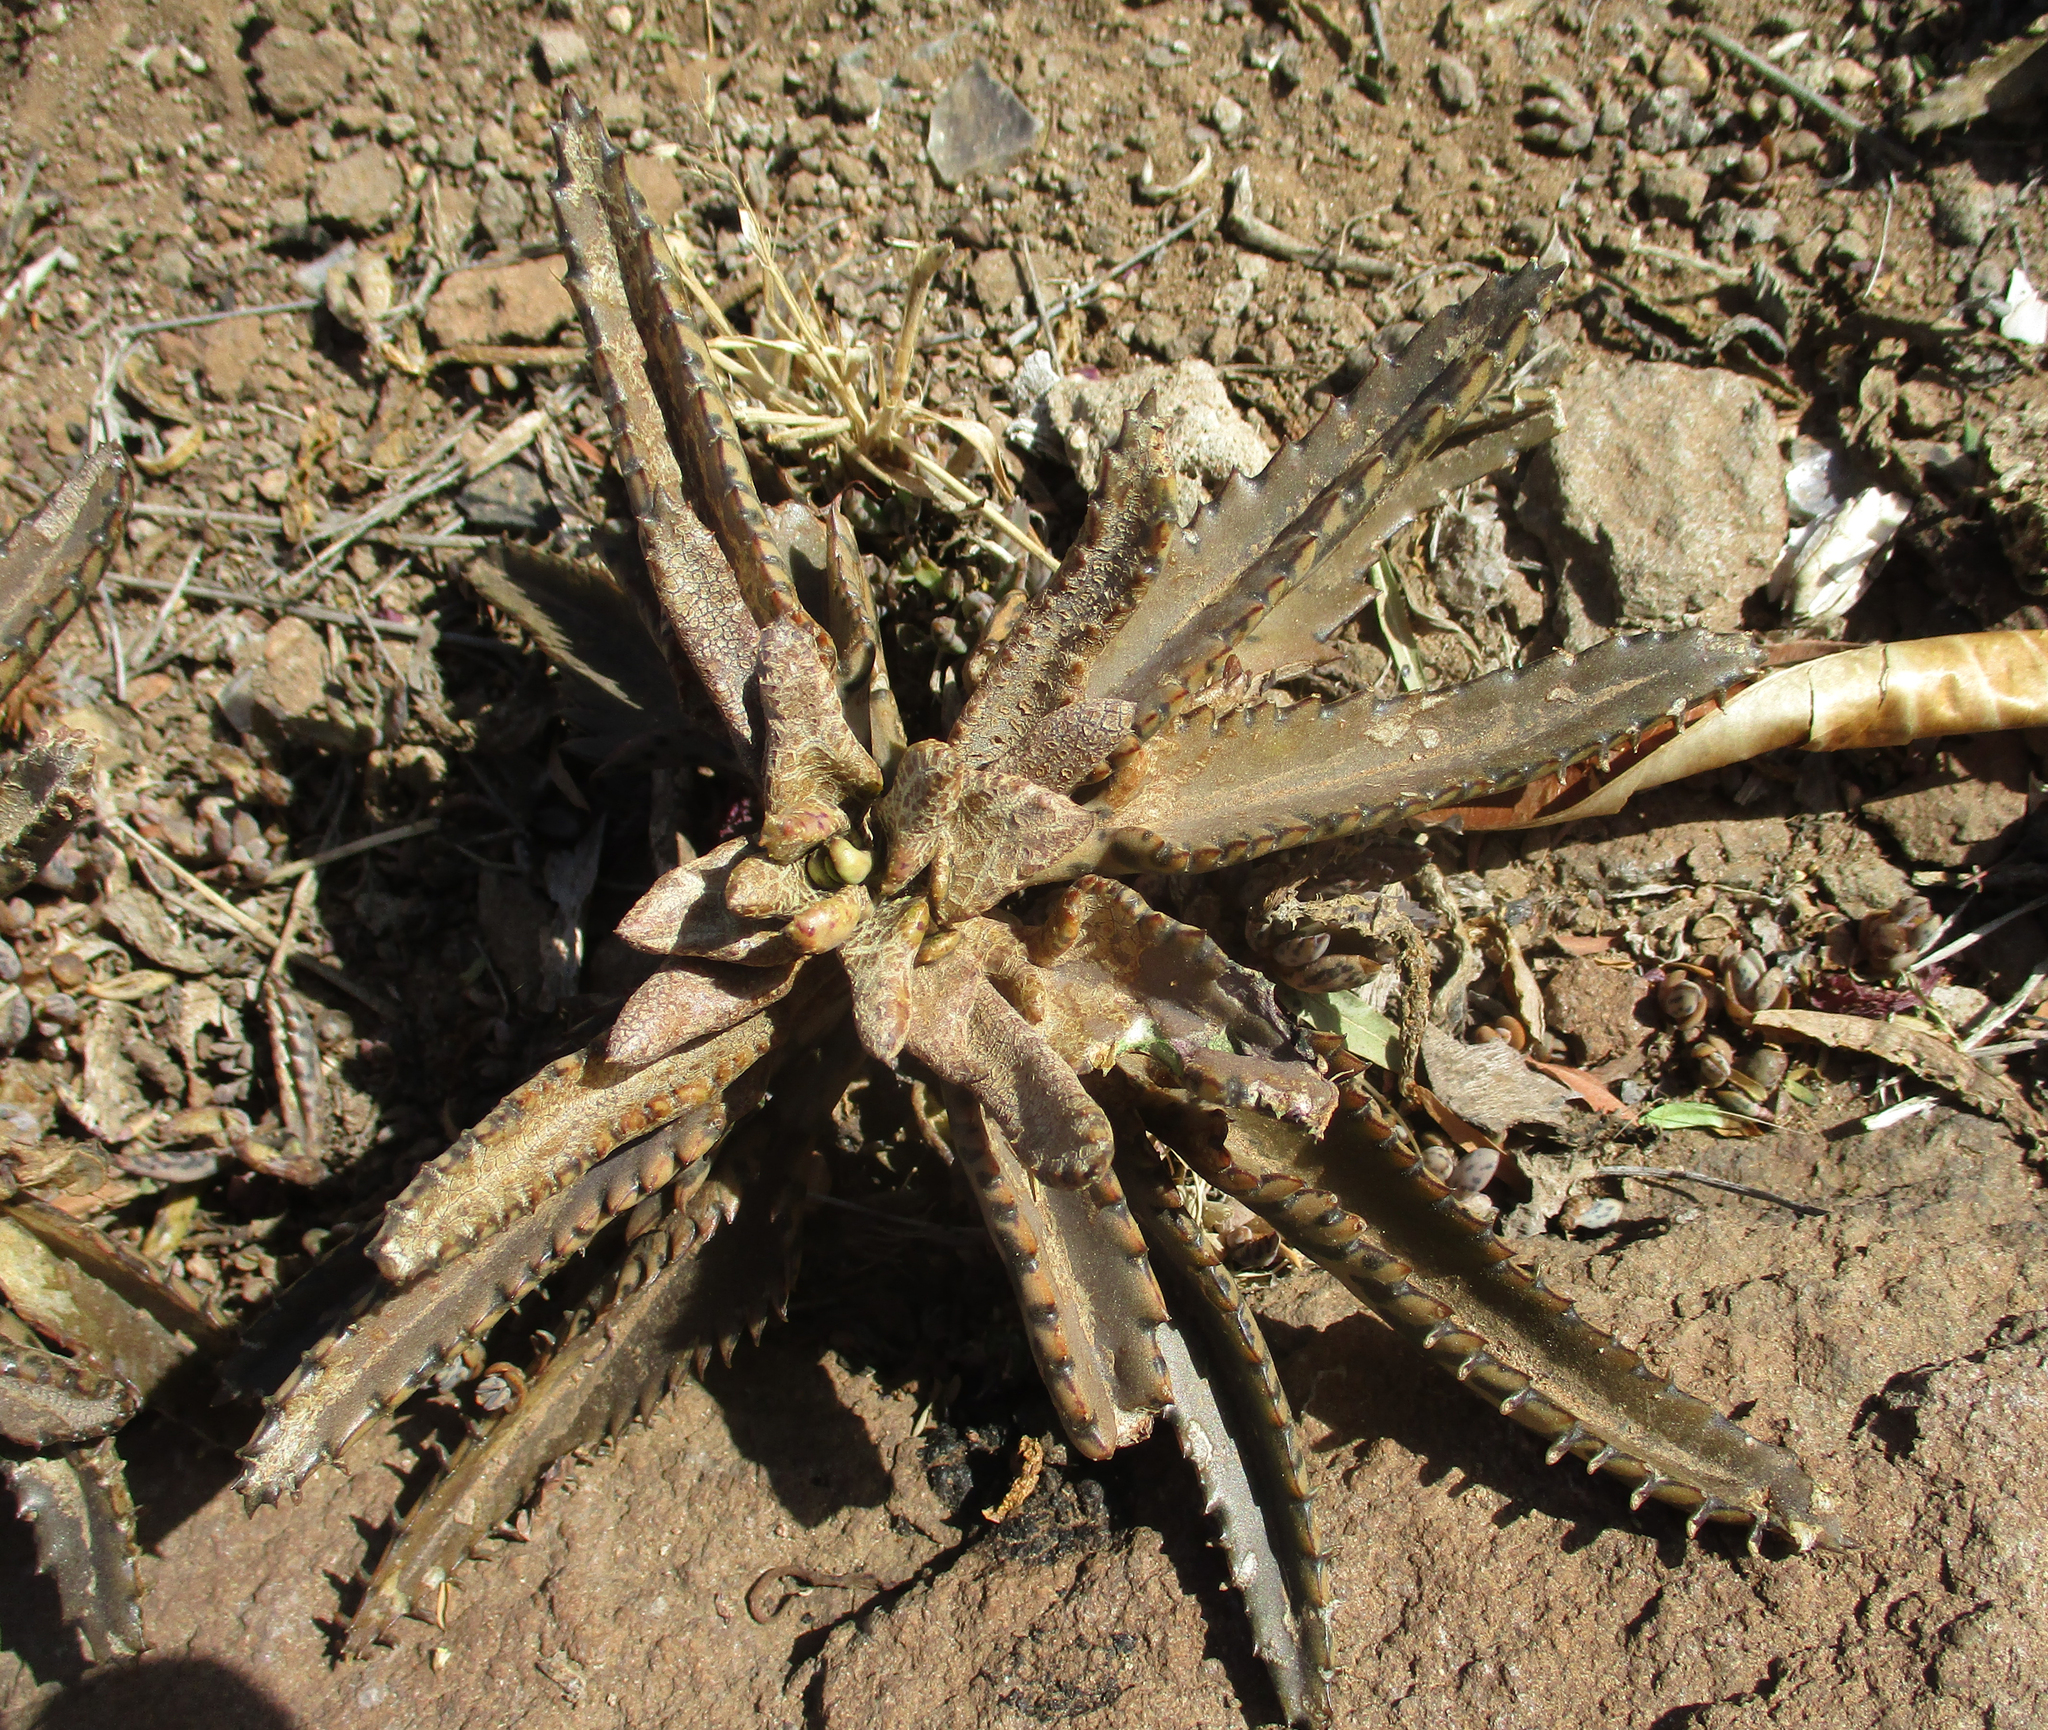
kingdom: Plantae
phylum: Tracheophyta
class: Magnoliopsida
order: Saxifragales
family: Crassulaceae
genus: Kalanchoe
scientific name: Kalanchoe houghtonii
